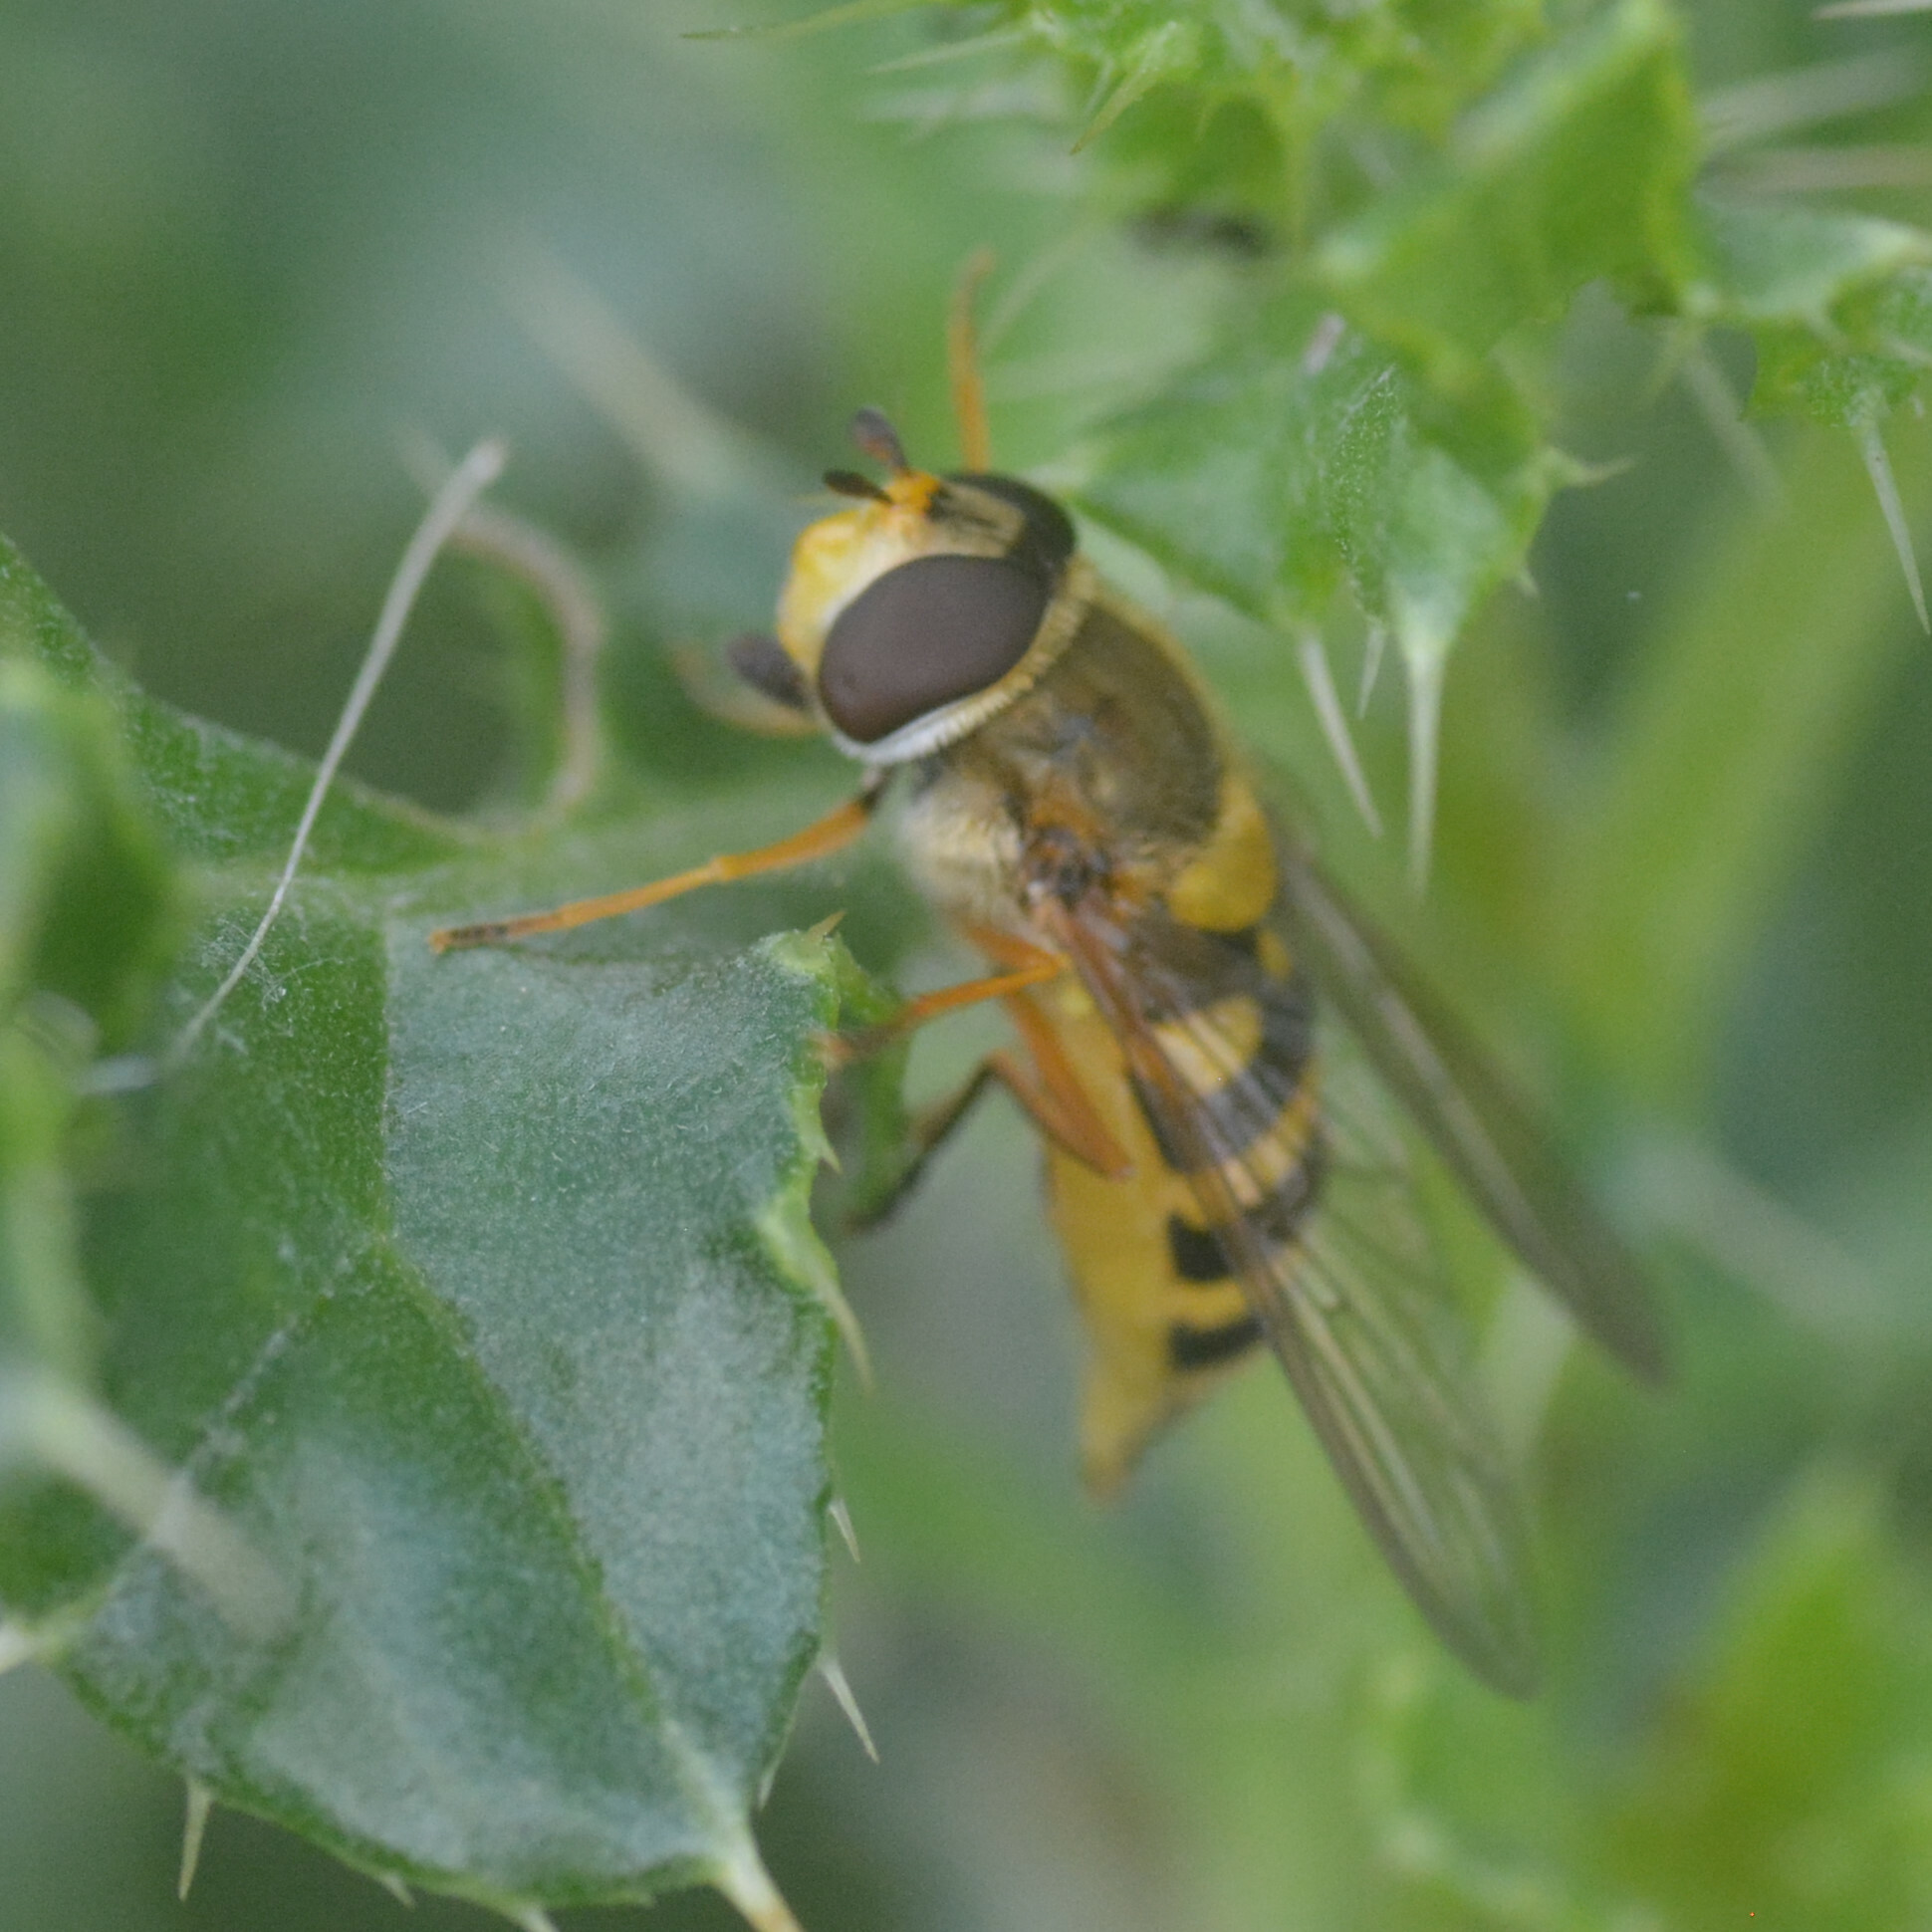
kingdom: Animalia
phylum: Arthropoda
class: Insecta
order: Diptera
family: Syrphidae
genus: Syrphus
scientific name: Syrphus ribesii
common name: Common flower fly
